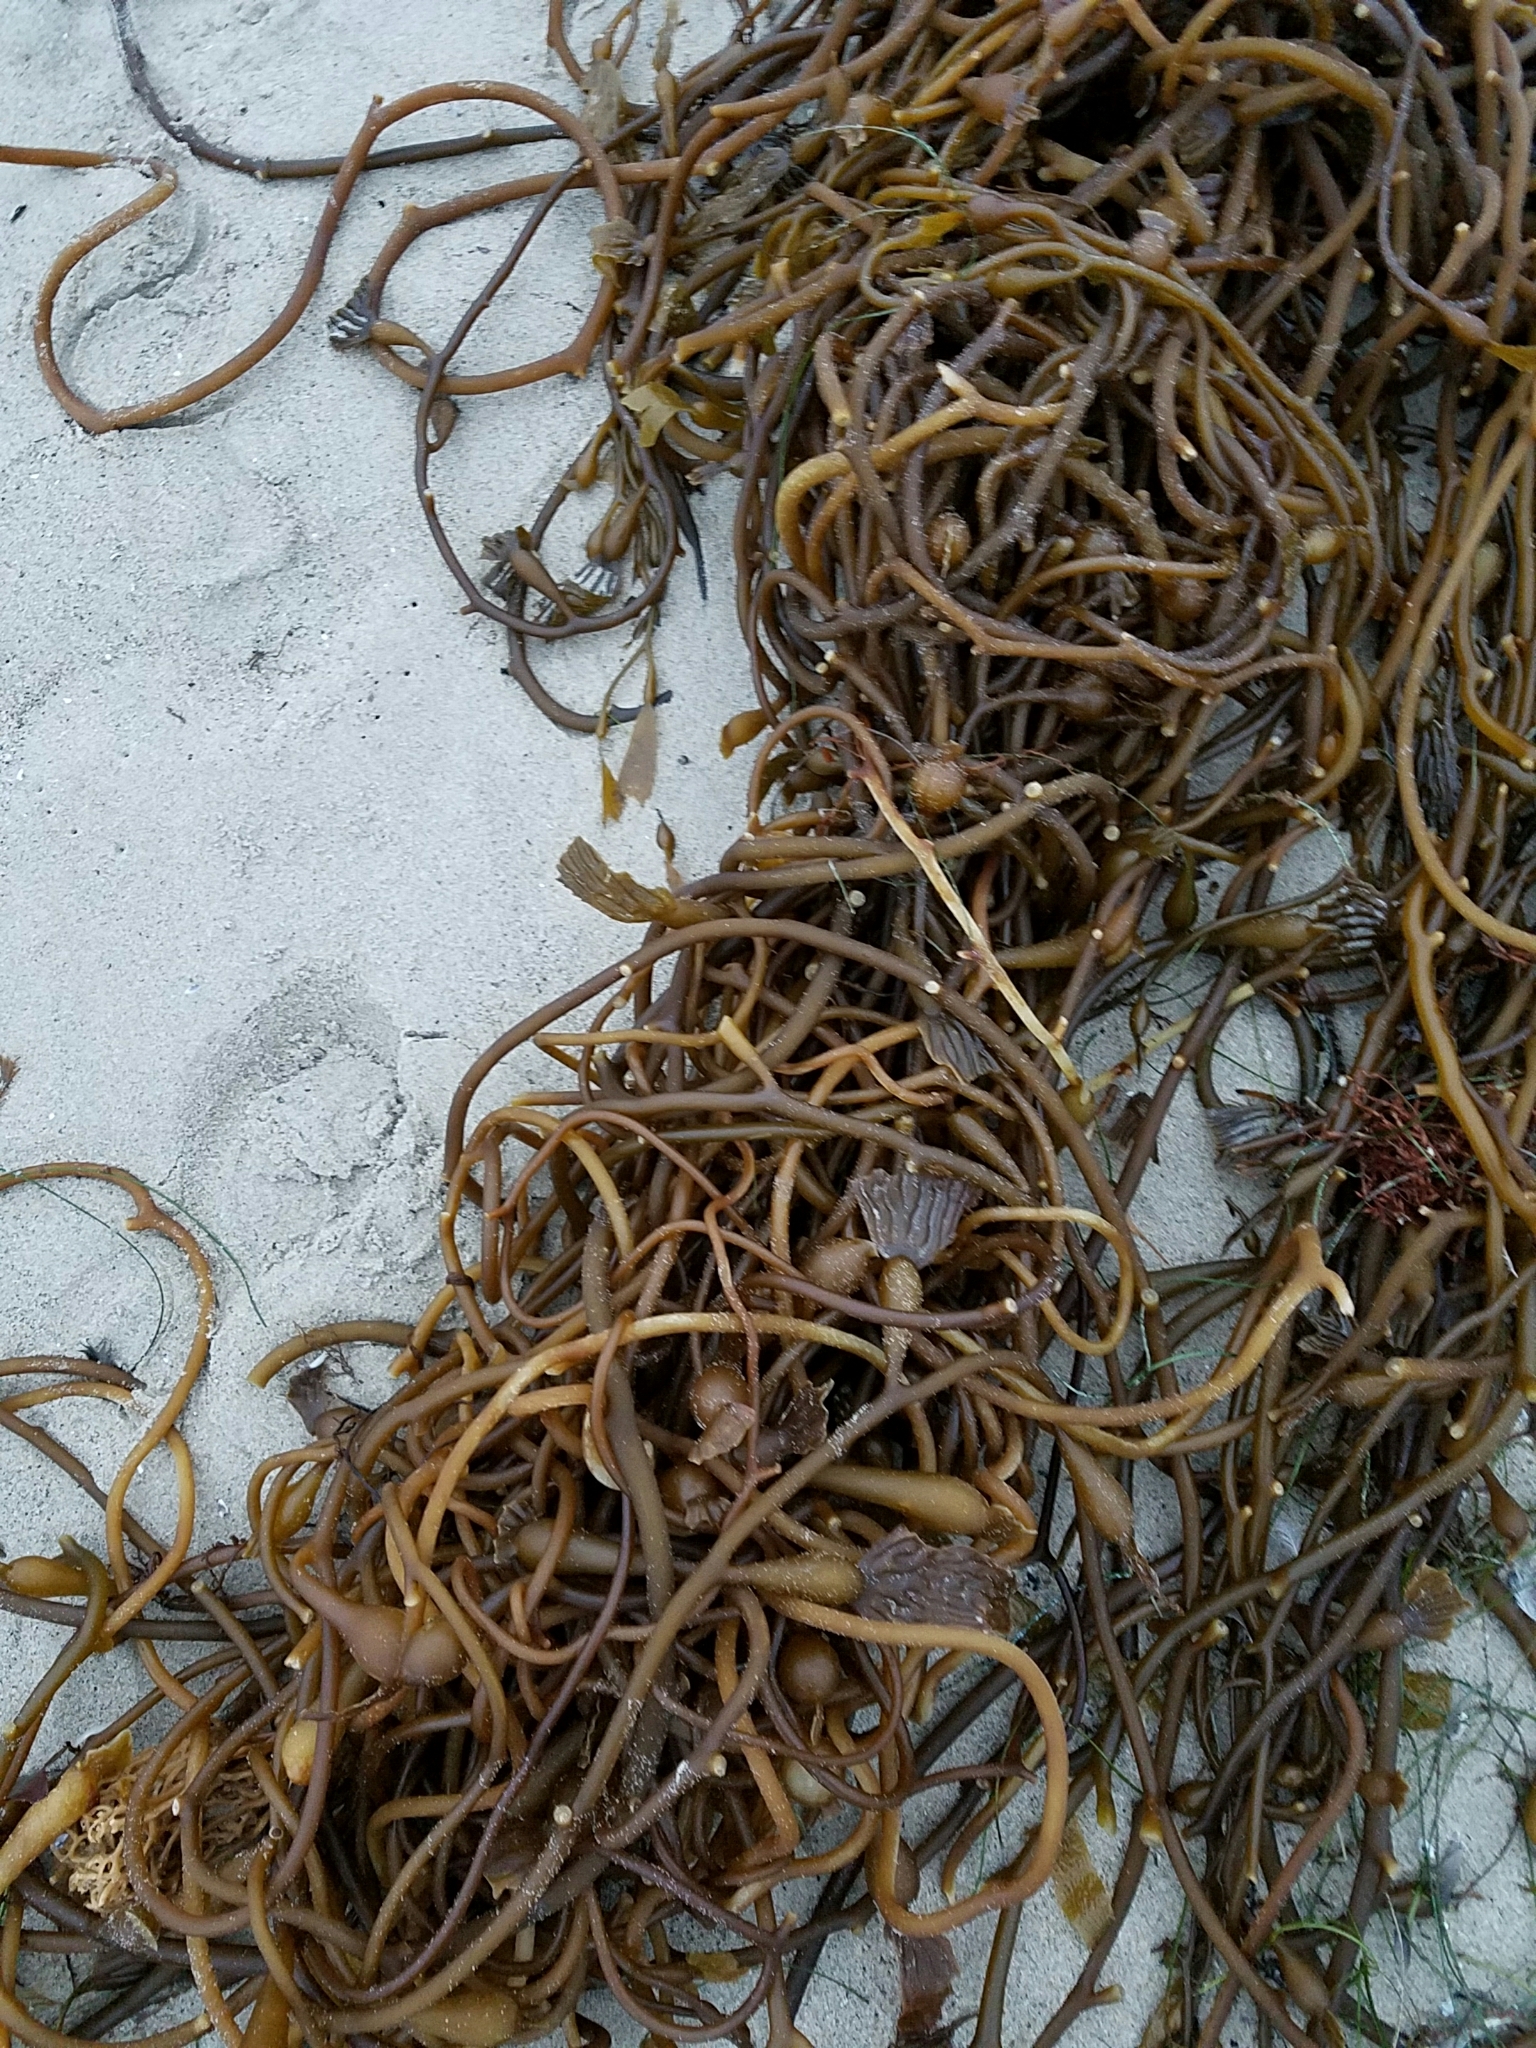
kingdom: Chromista
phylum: Ochrophyta
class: Phaeophyceae
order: Laminariales
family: Laminariaceae
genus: Macrocystis
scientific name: Macrocystis pyrifera
